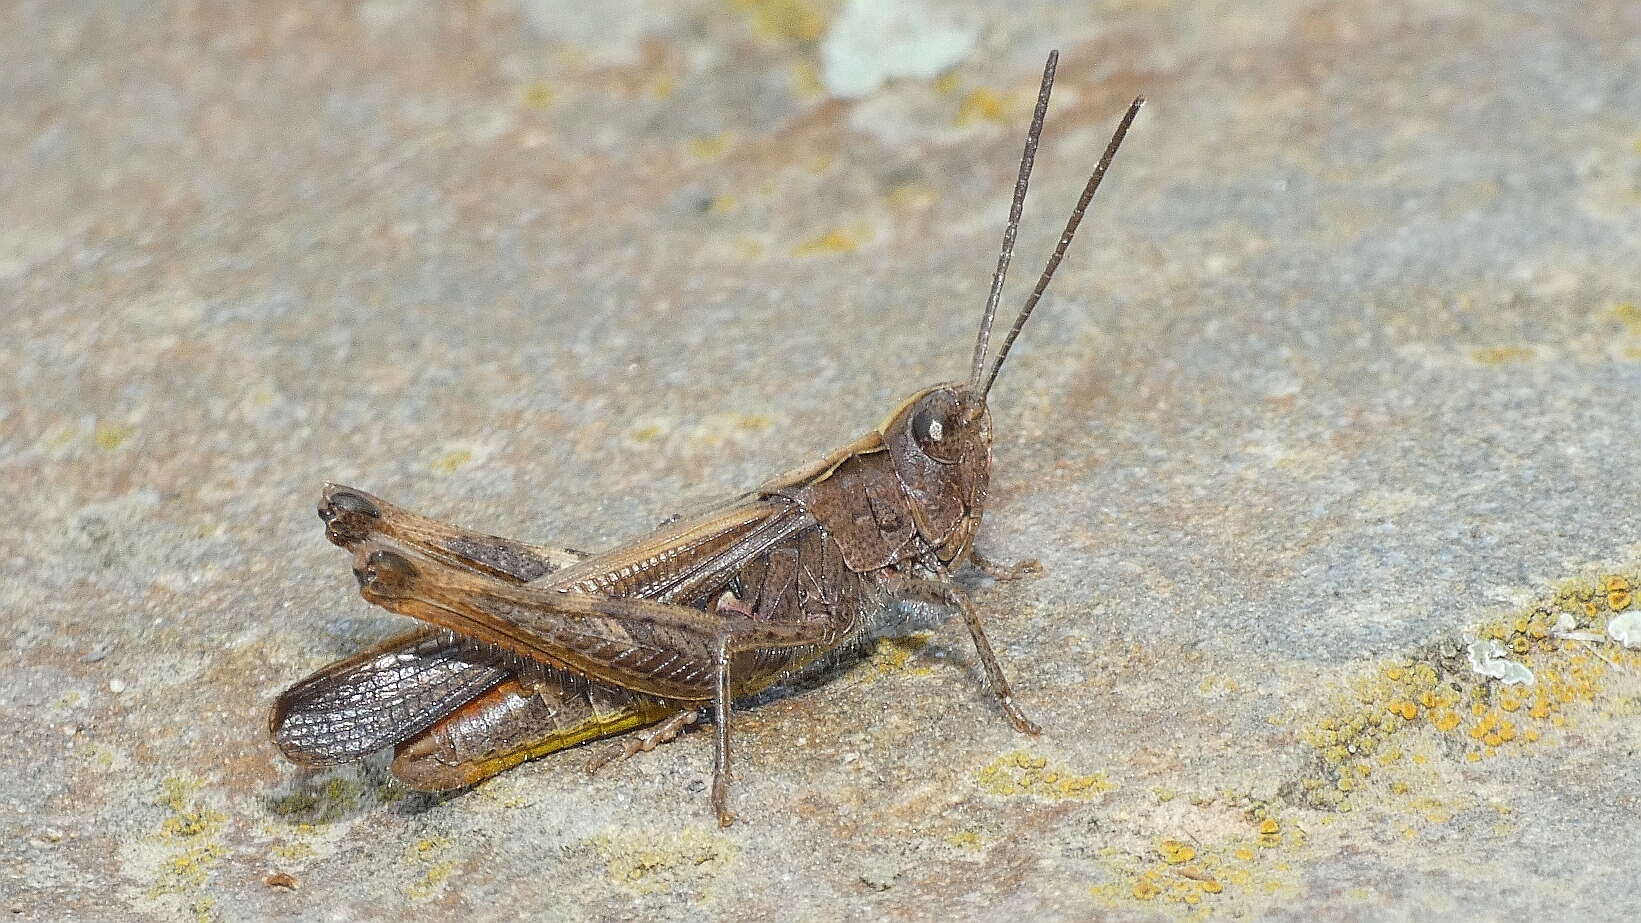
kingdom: Animalia
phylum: Arthropoda
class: Insecta
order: Orthoptera
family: Acrididae
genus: Chorthippus
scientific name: Chorthippus brunneus
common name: Field grasshopper
